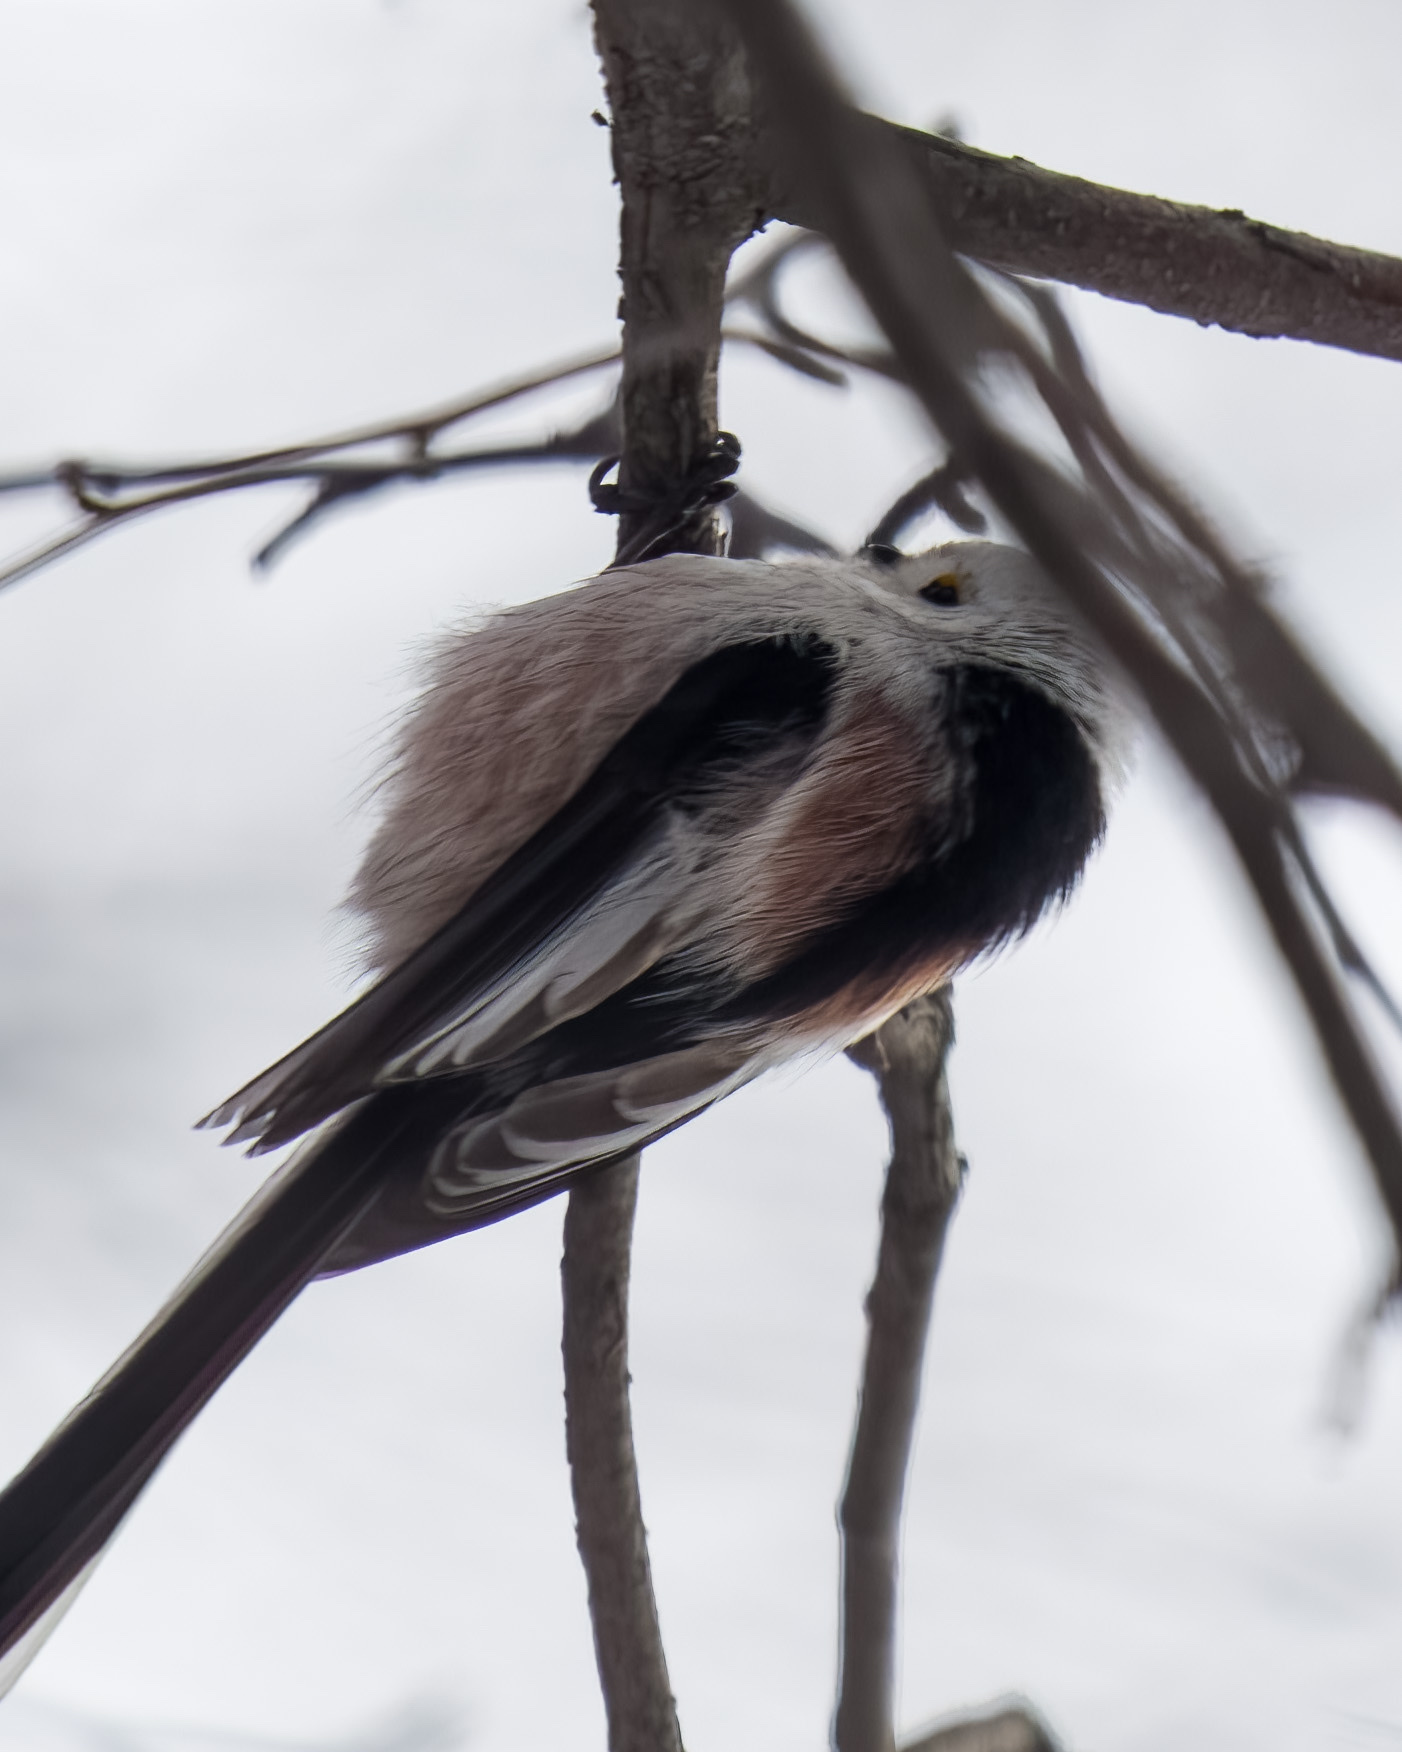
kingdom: Animalia
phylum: Chordata
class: Aves
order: Passeriformes
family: Aegithalidae
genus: Aegithalos
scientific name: Aegithalos caudatus
